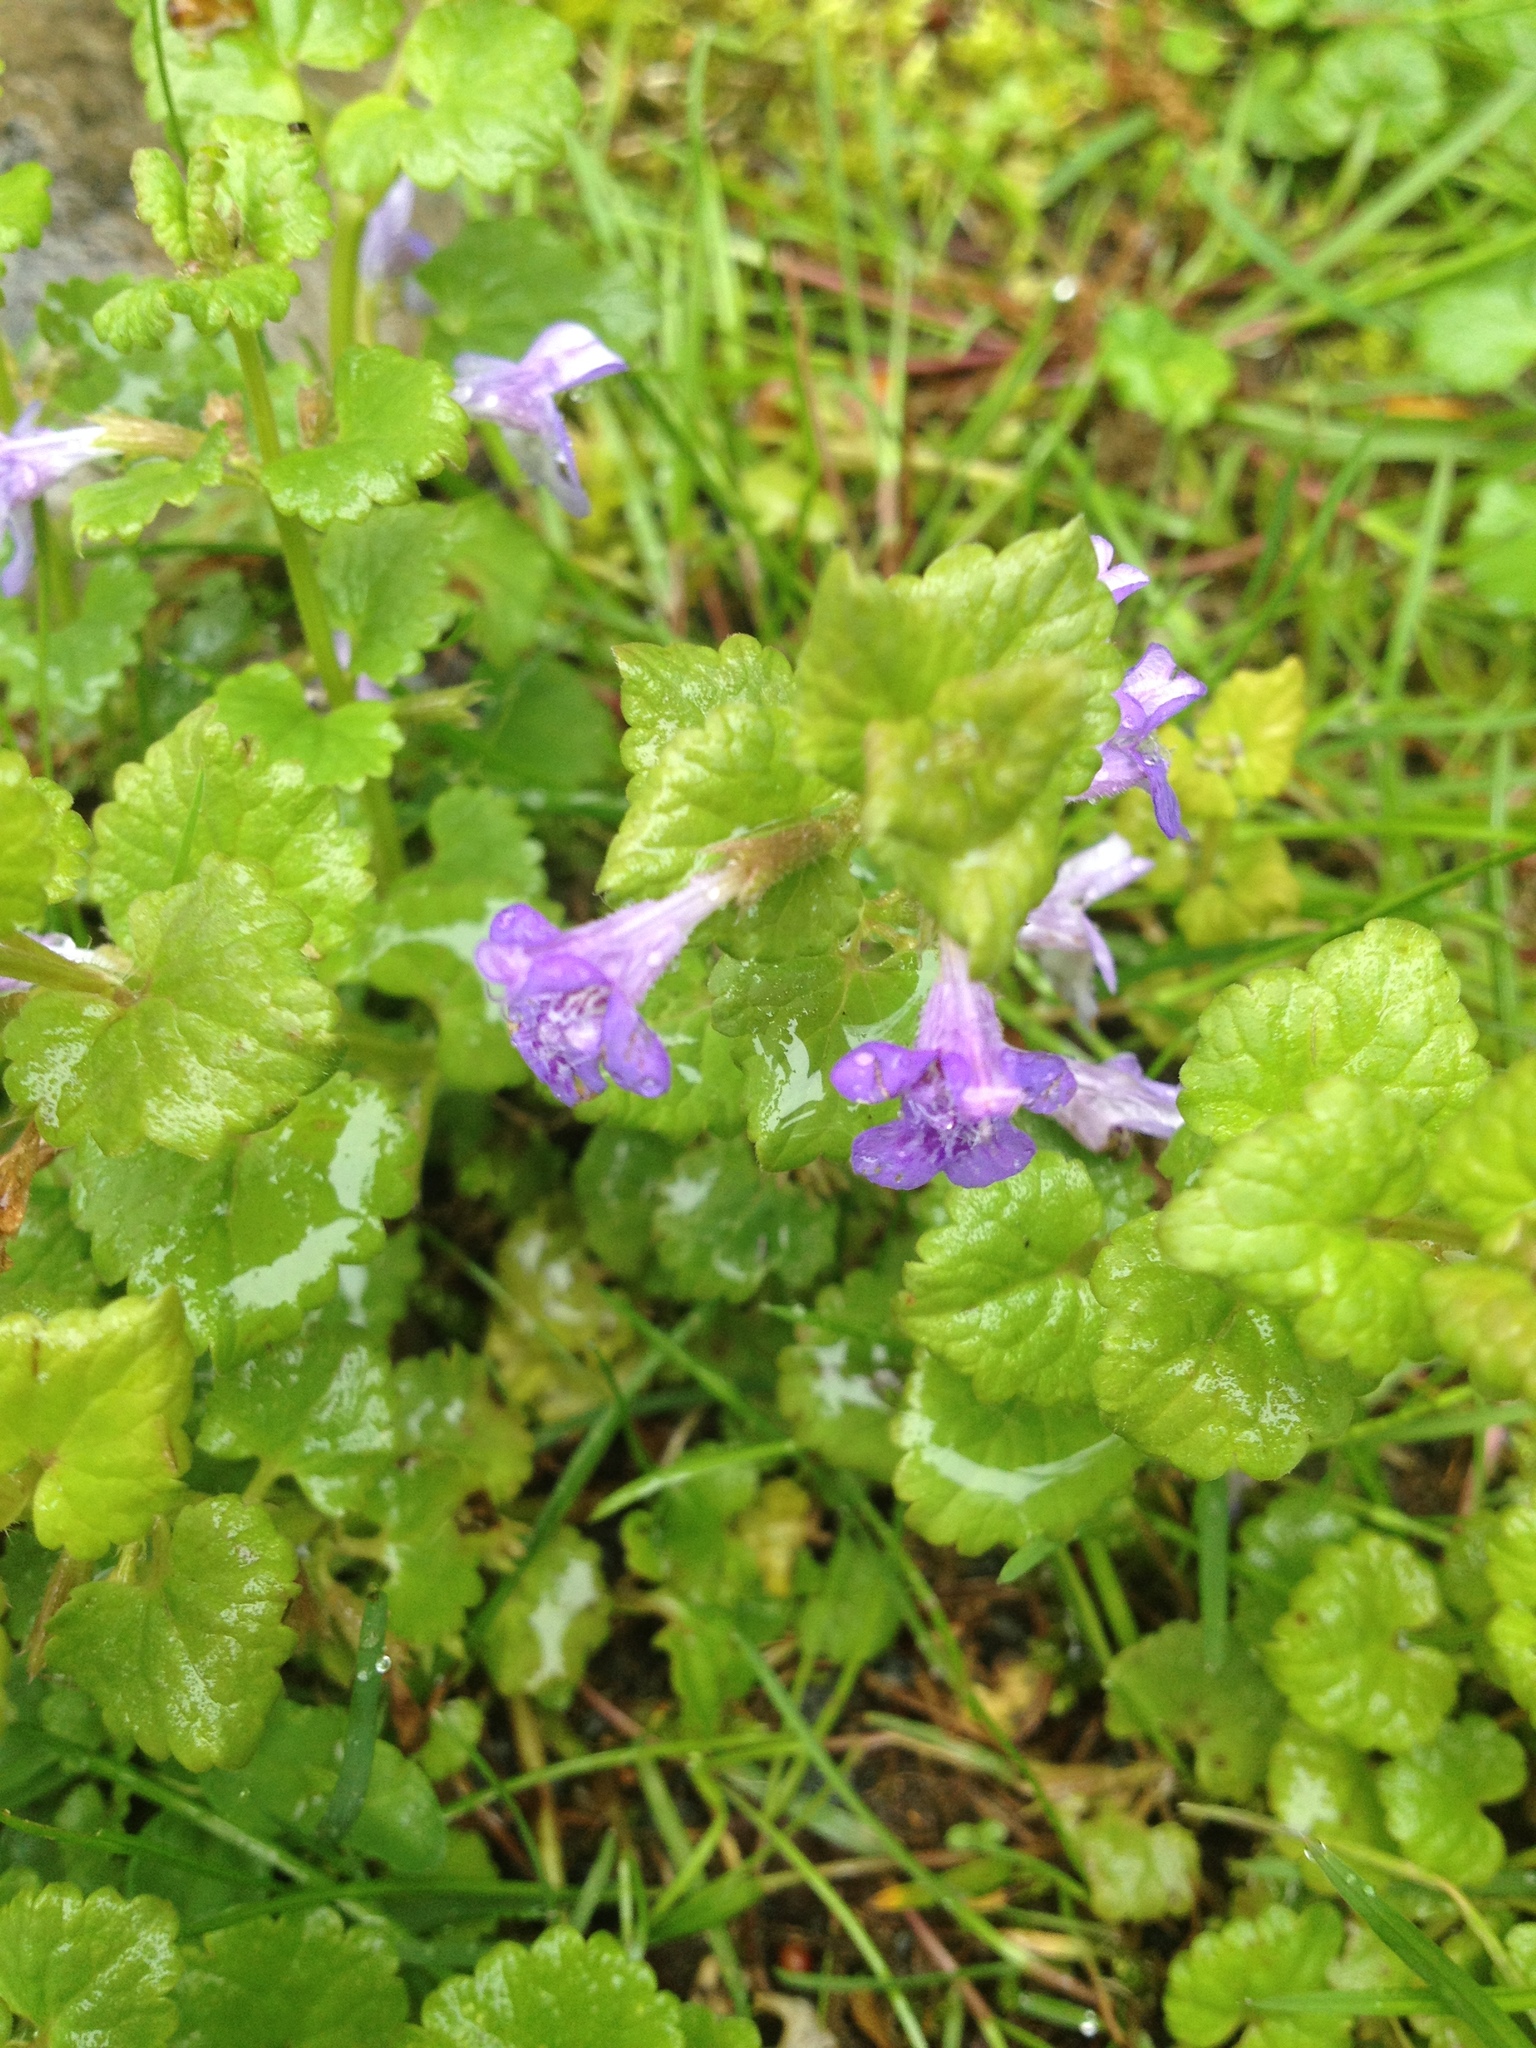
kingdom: Plantae
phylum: Tracheophyta
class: Magnoliopsida
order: Lamiales
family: Lamiaceae
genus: Glechoma
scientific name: Glechoma hederacea
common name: Ground ivy
